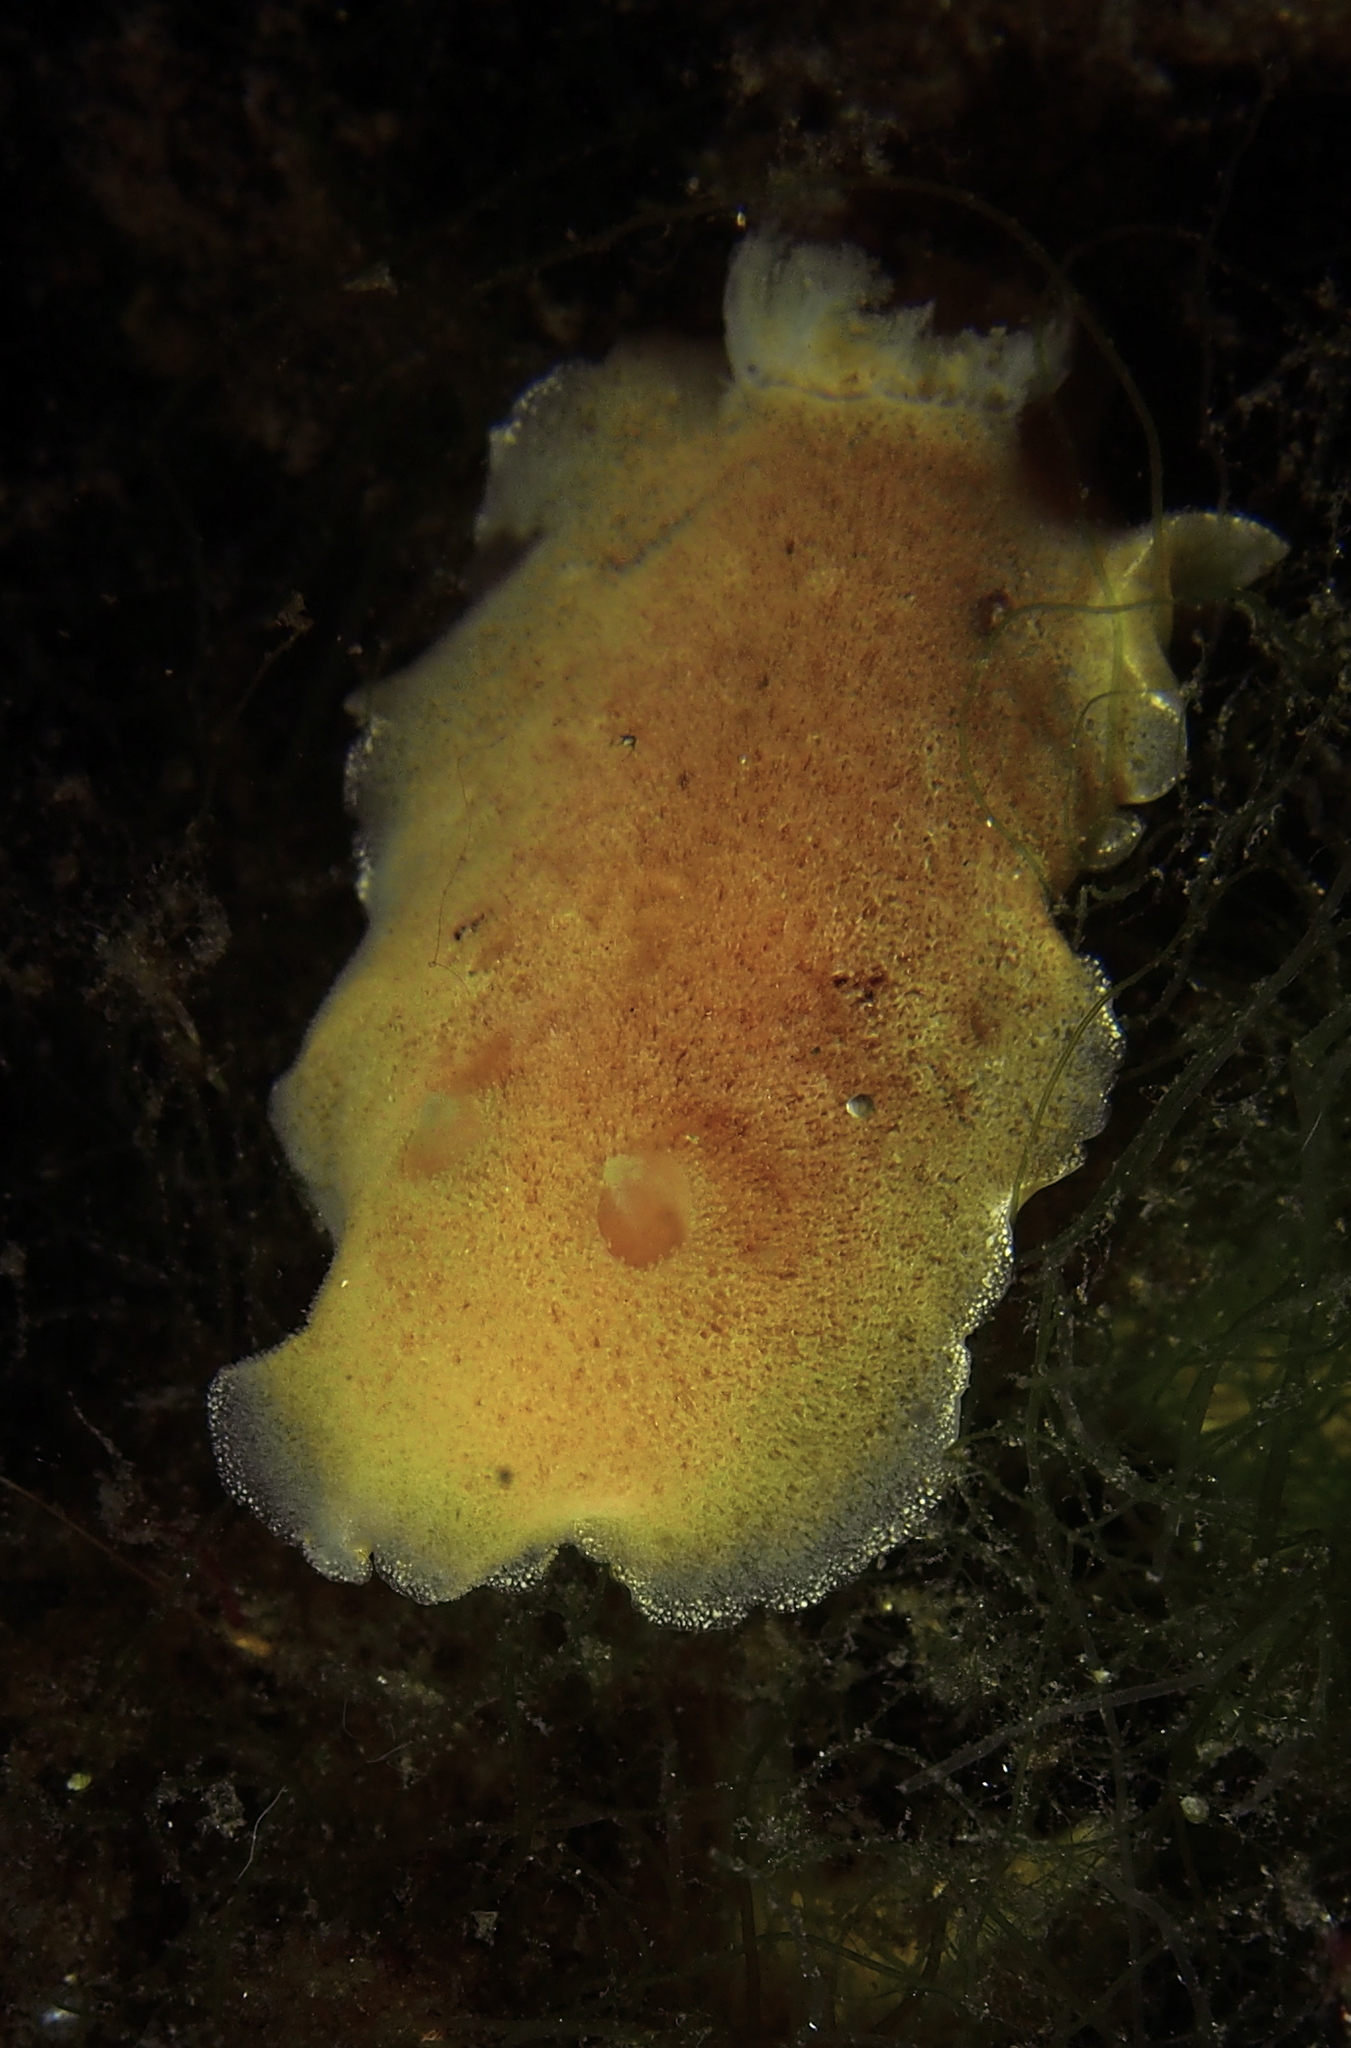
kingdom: Animalia
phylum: Mollusca
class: Gastropoda
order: Nudibranchia
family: Discodorididae
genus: Jorunna
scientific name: Jorunna tomentosa
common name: Grey sea slug
